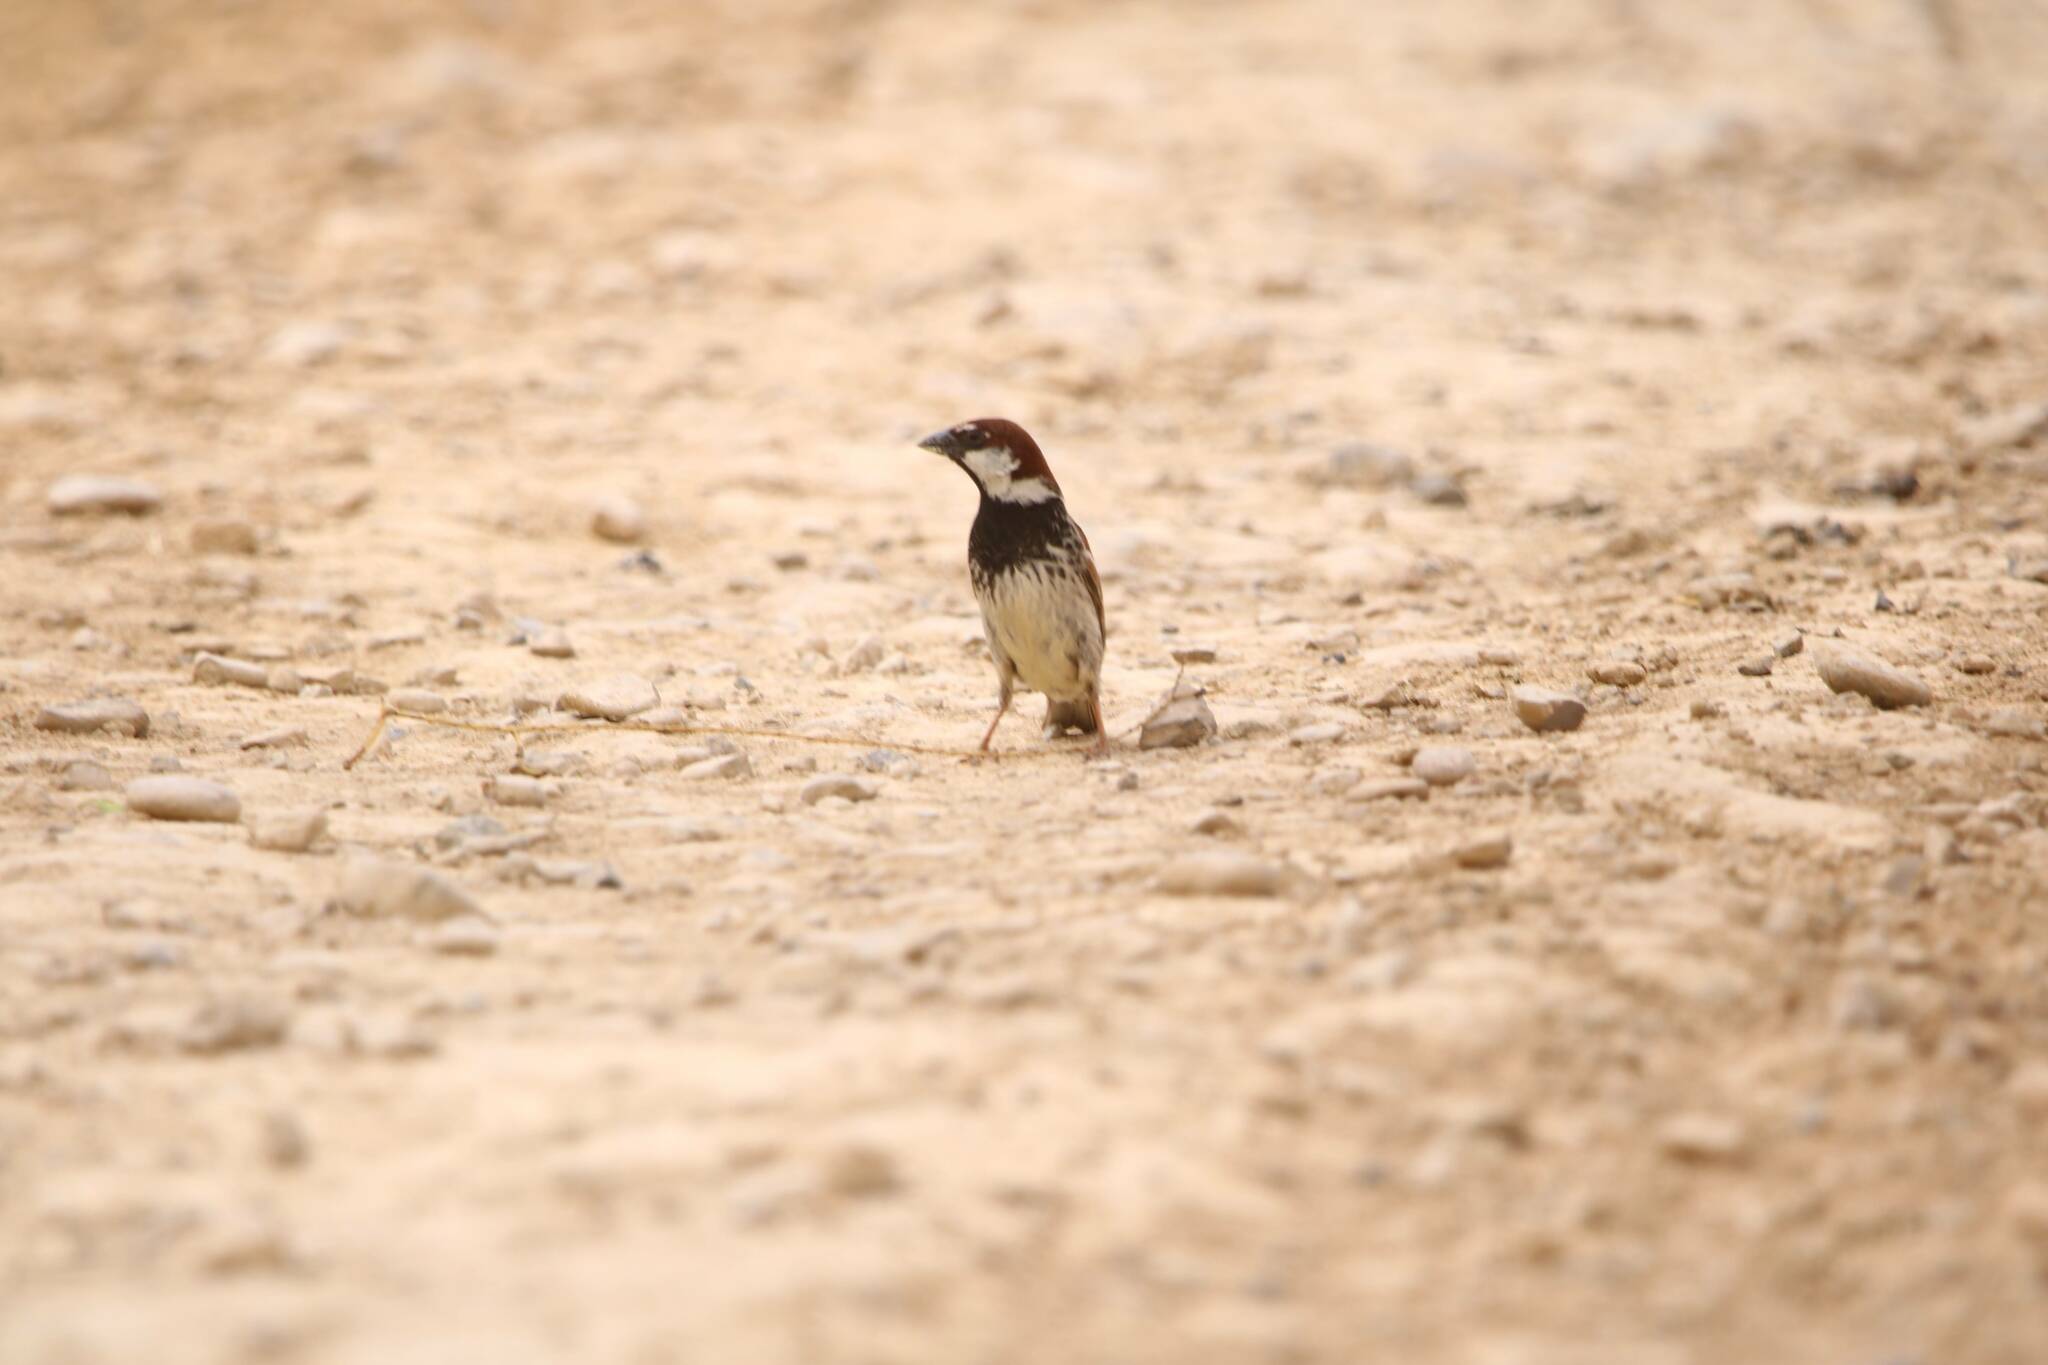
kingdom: Animalia
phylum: Chordata
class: Aves
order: Passeriformes
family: Passeridae
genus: Passer
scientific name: Passer hispaniolensis
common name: Spanish sparrow
